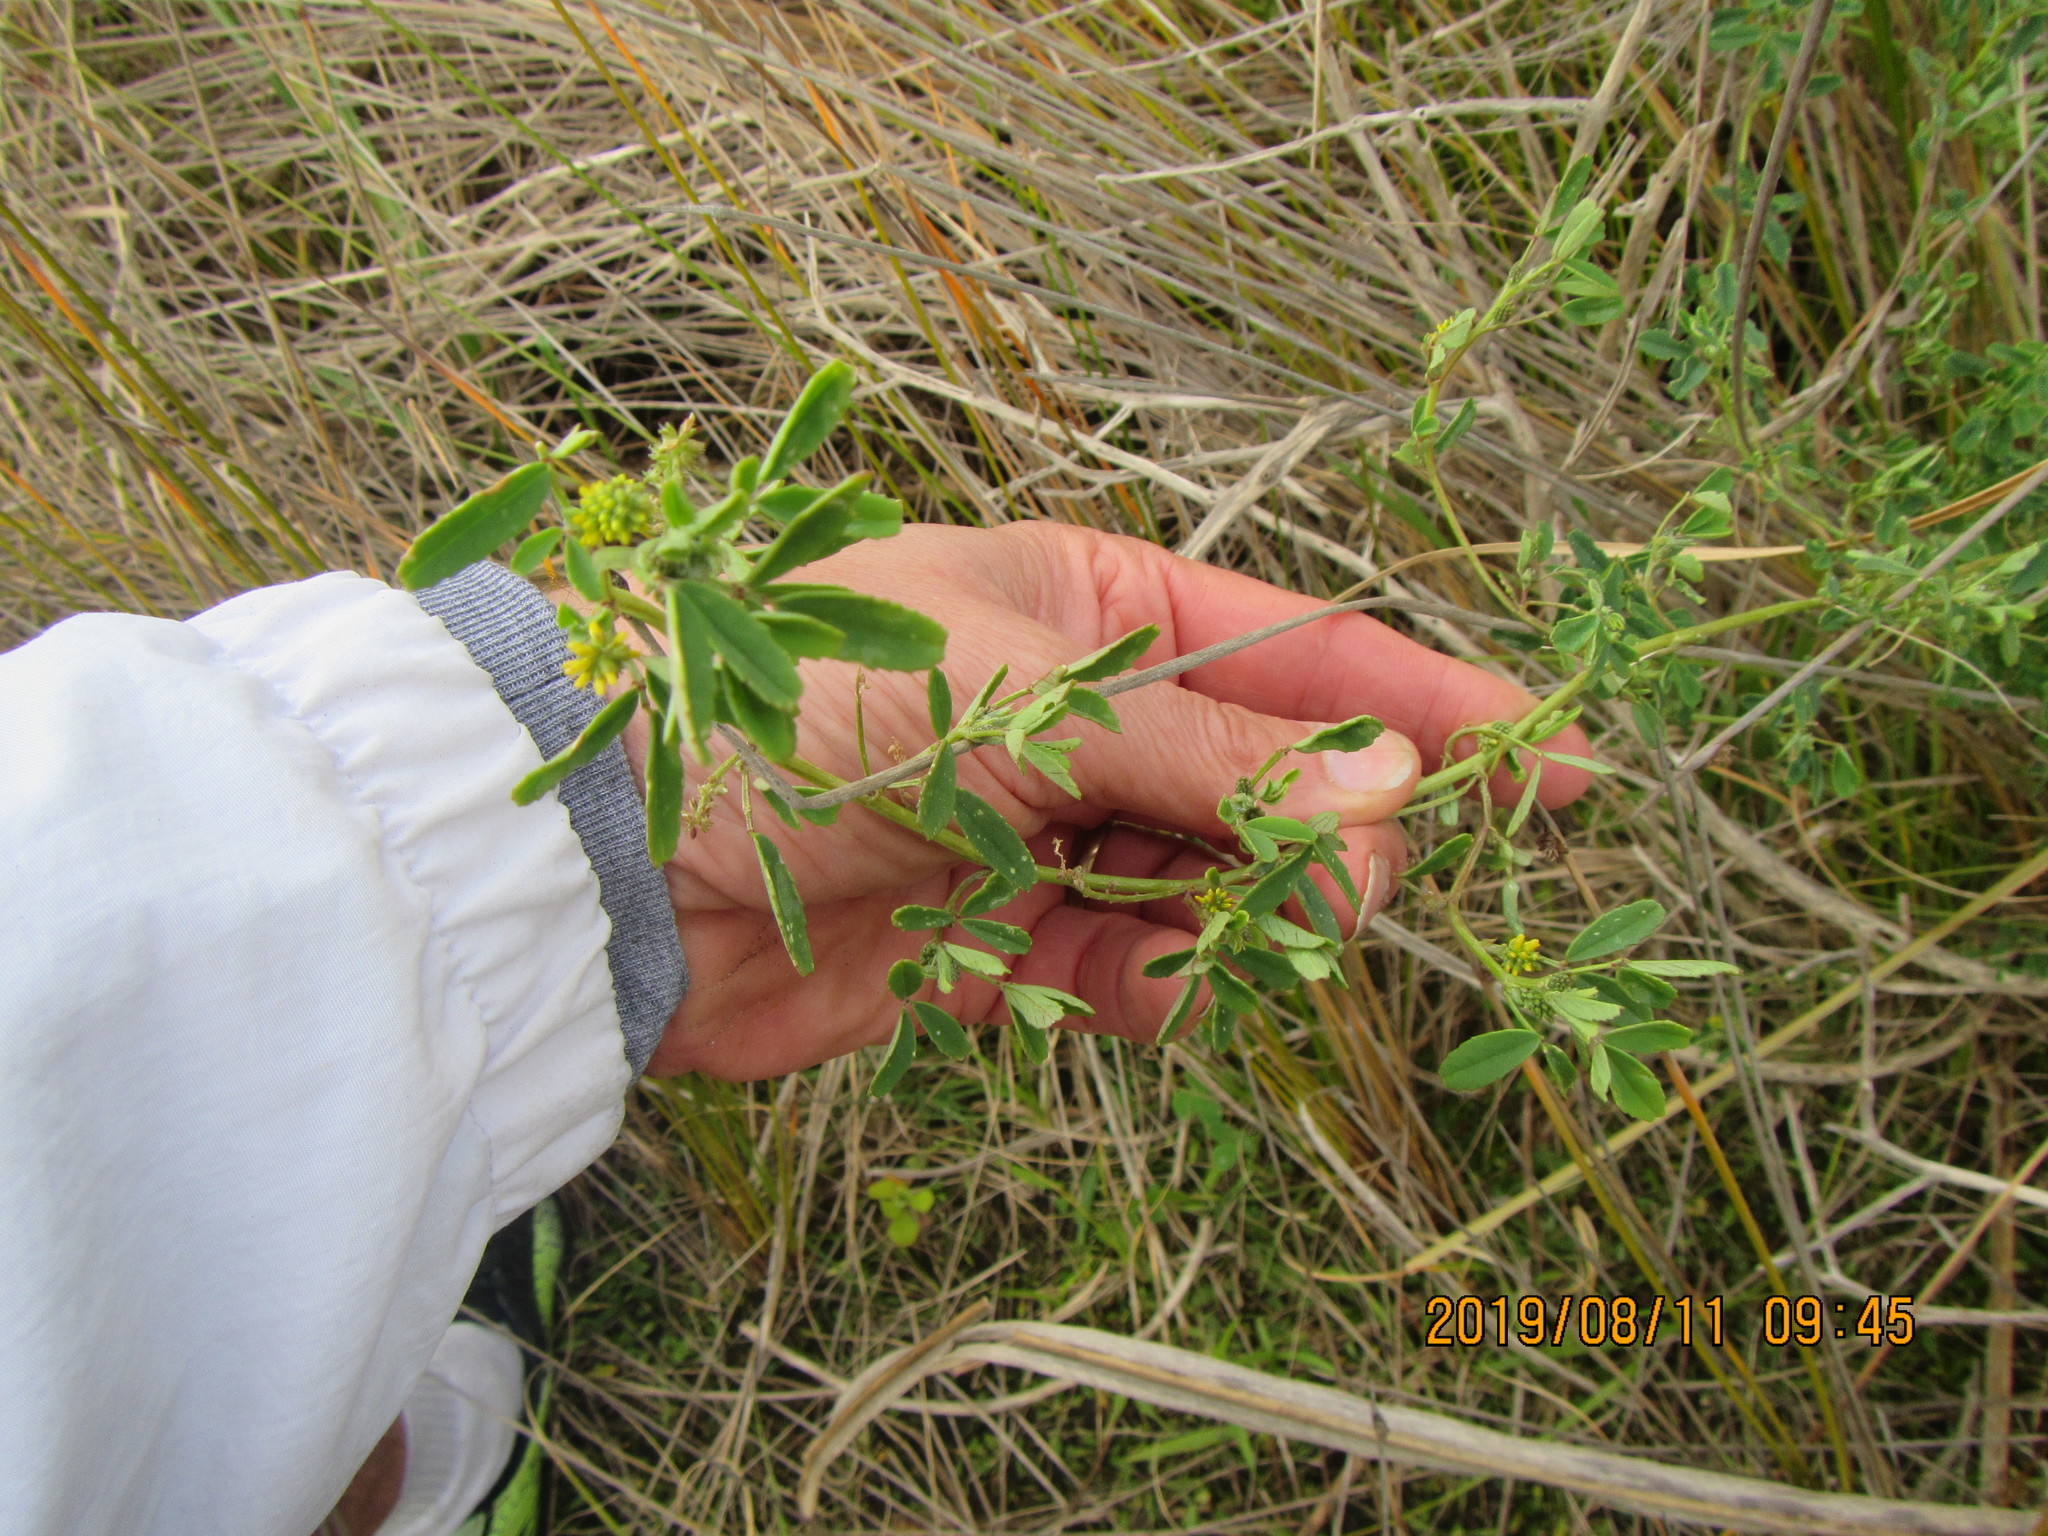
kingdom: Plantae
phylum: Tracheophyta
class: Magnoliopsida
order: Fabales
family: Fabaceae
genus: Melilotus
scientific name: Melilotus indicus
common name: Small melilot
